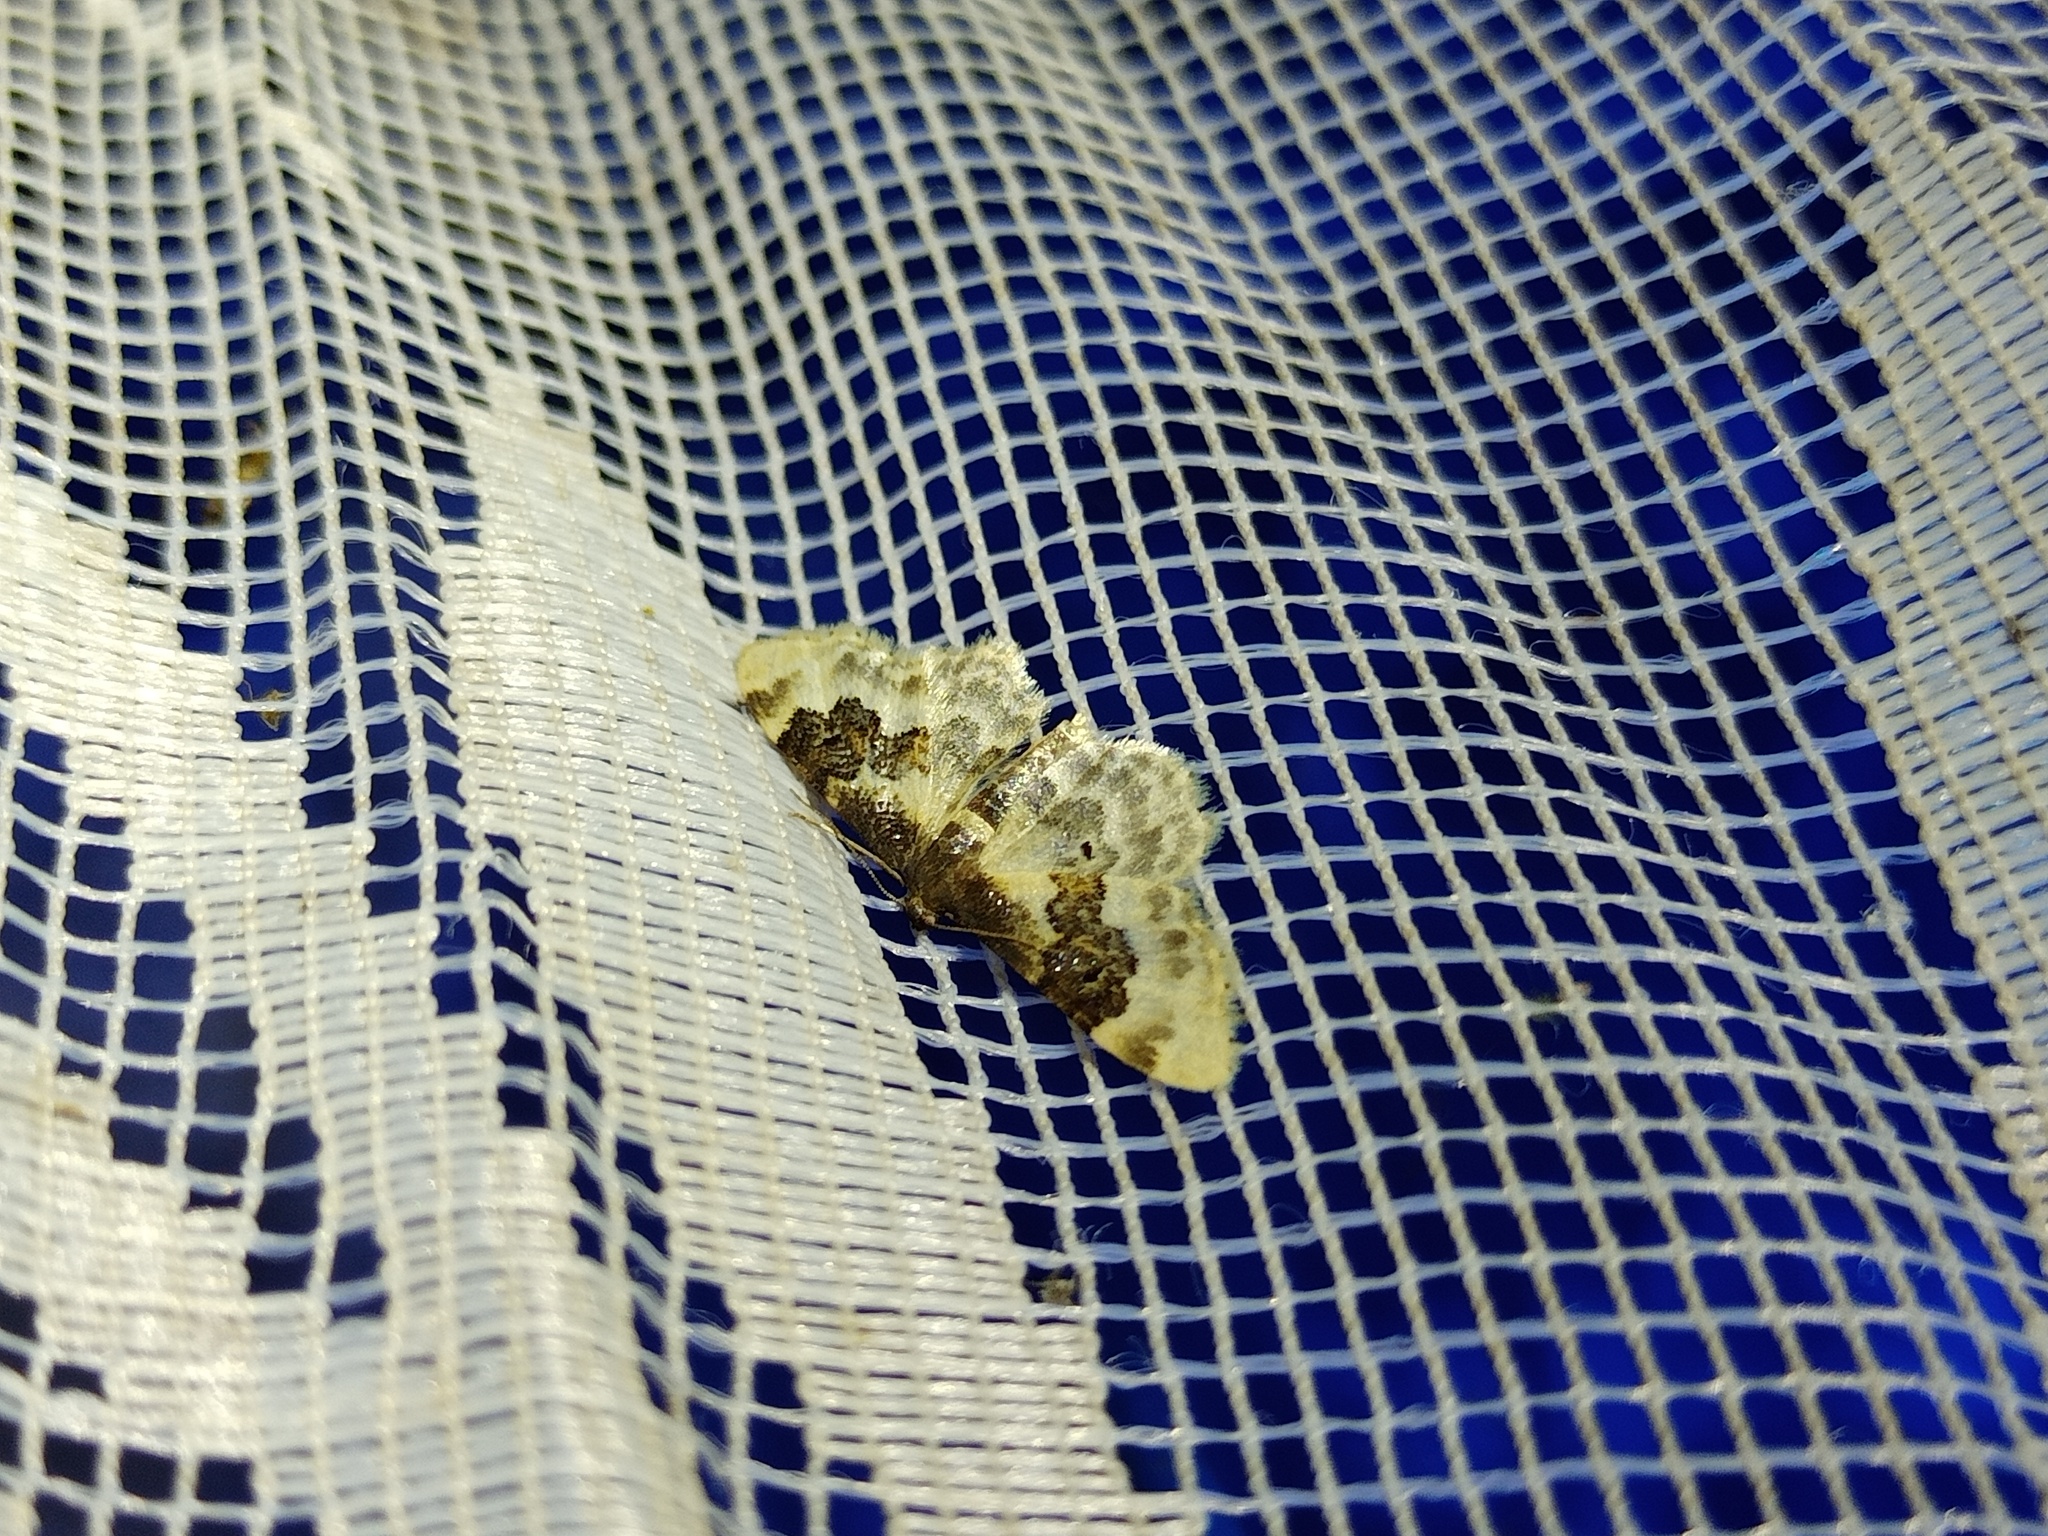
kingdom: Animalia
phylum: Arthropoda
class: Insecta
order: Lepidoptera
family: Geometridae
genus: Idaea
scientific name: Idaea rusticata
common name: Least carpet
